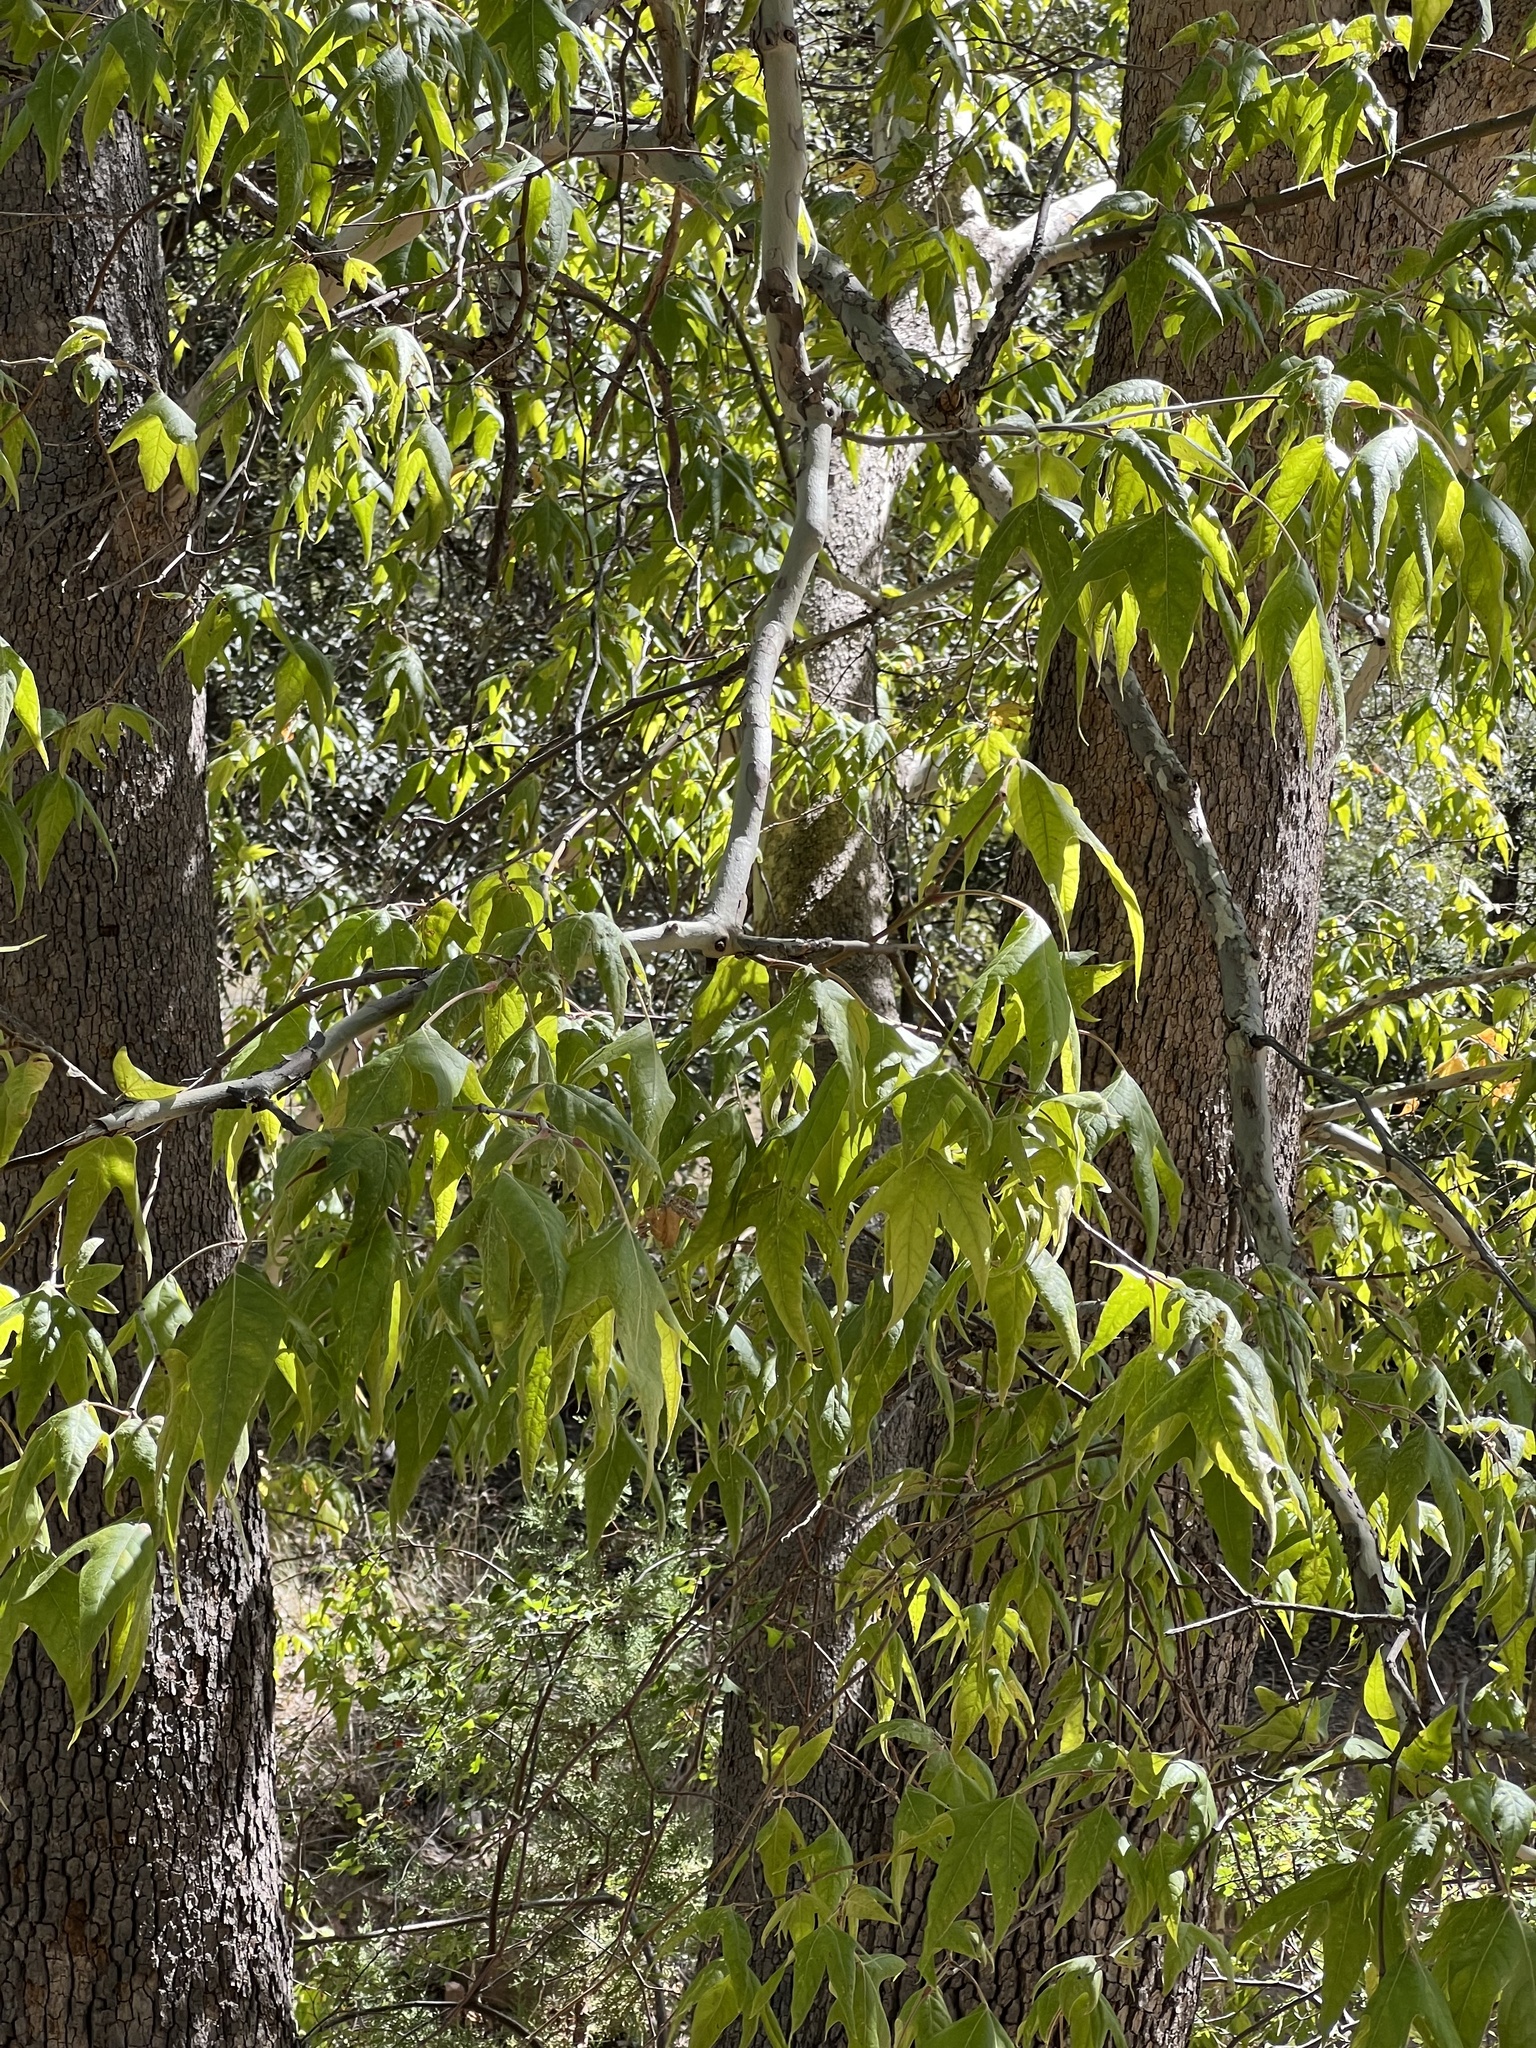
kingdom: Plantae
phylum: Tracheophyta
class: Magnoliopsida
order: Proteales
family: Platanaceae
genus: Platanus
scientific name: Platanus wrightii
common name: Arizona sycamore
